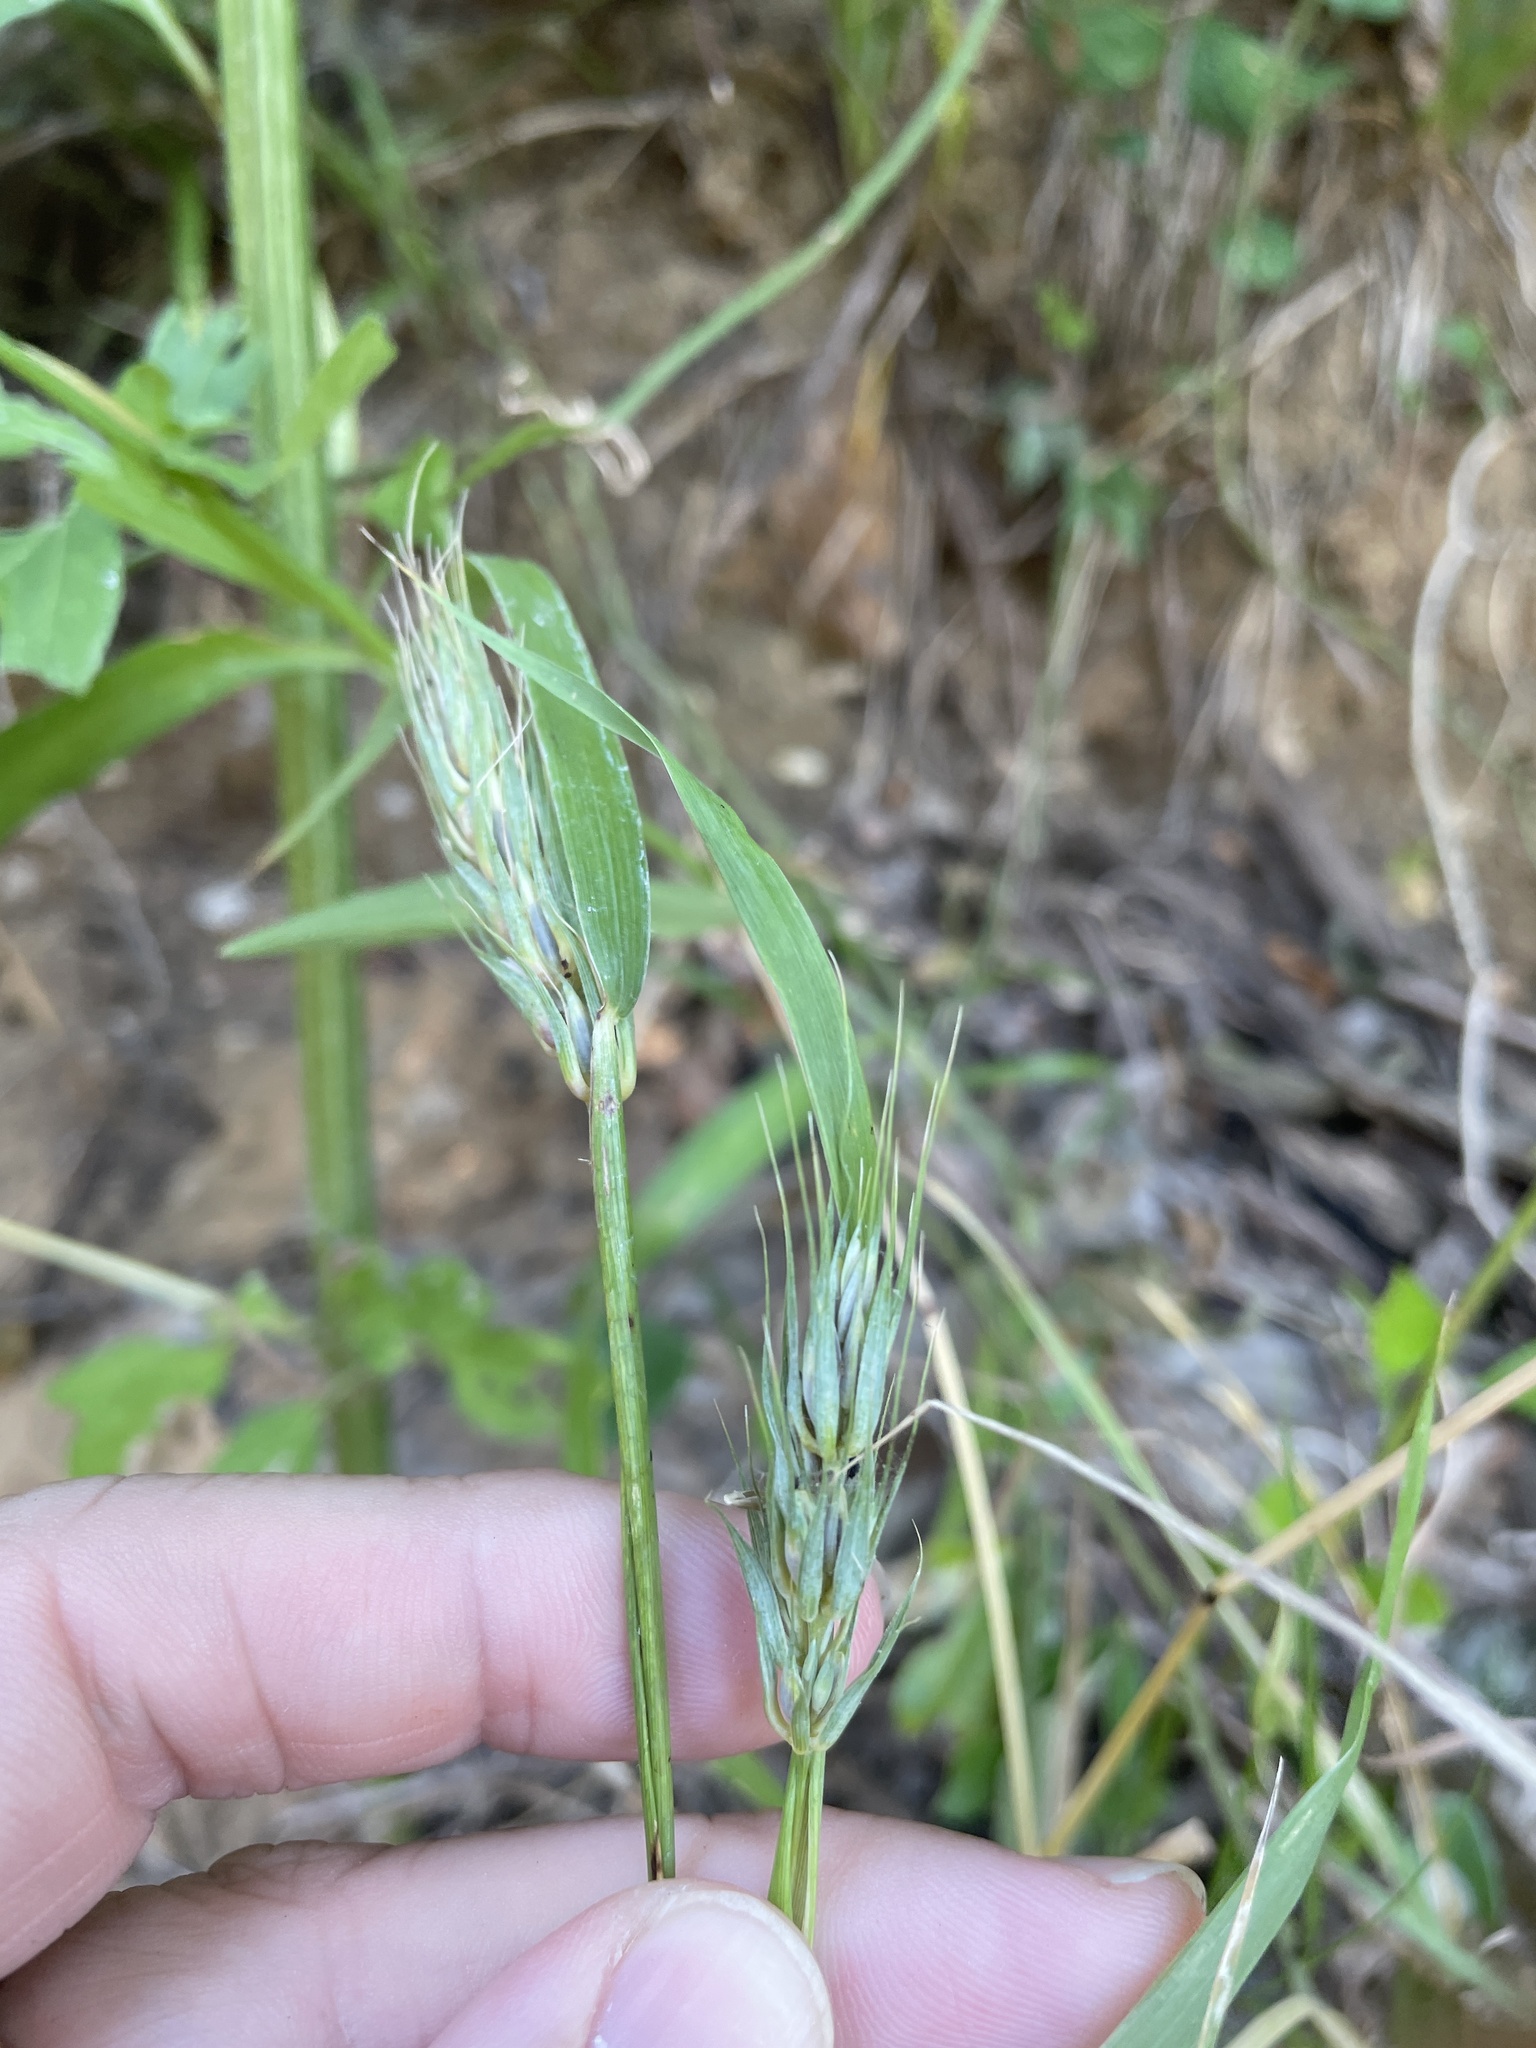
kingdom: Plantae
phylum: Tracheophyta
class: Liliopsida
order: Poales
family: Poaceae
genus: Elymus
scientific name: Elymus virginicus
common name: Common eastern wildrye
